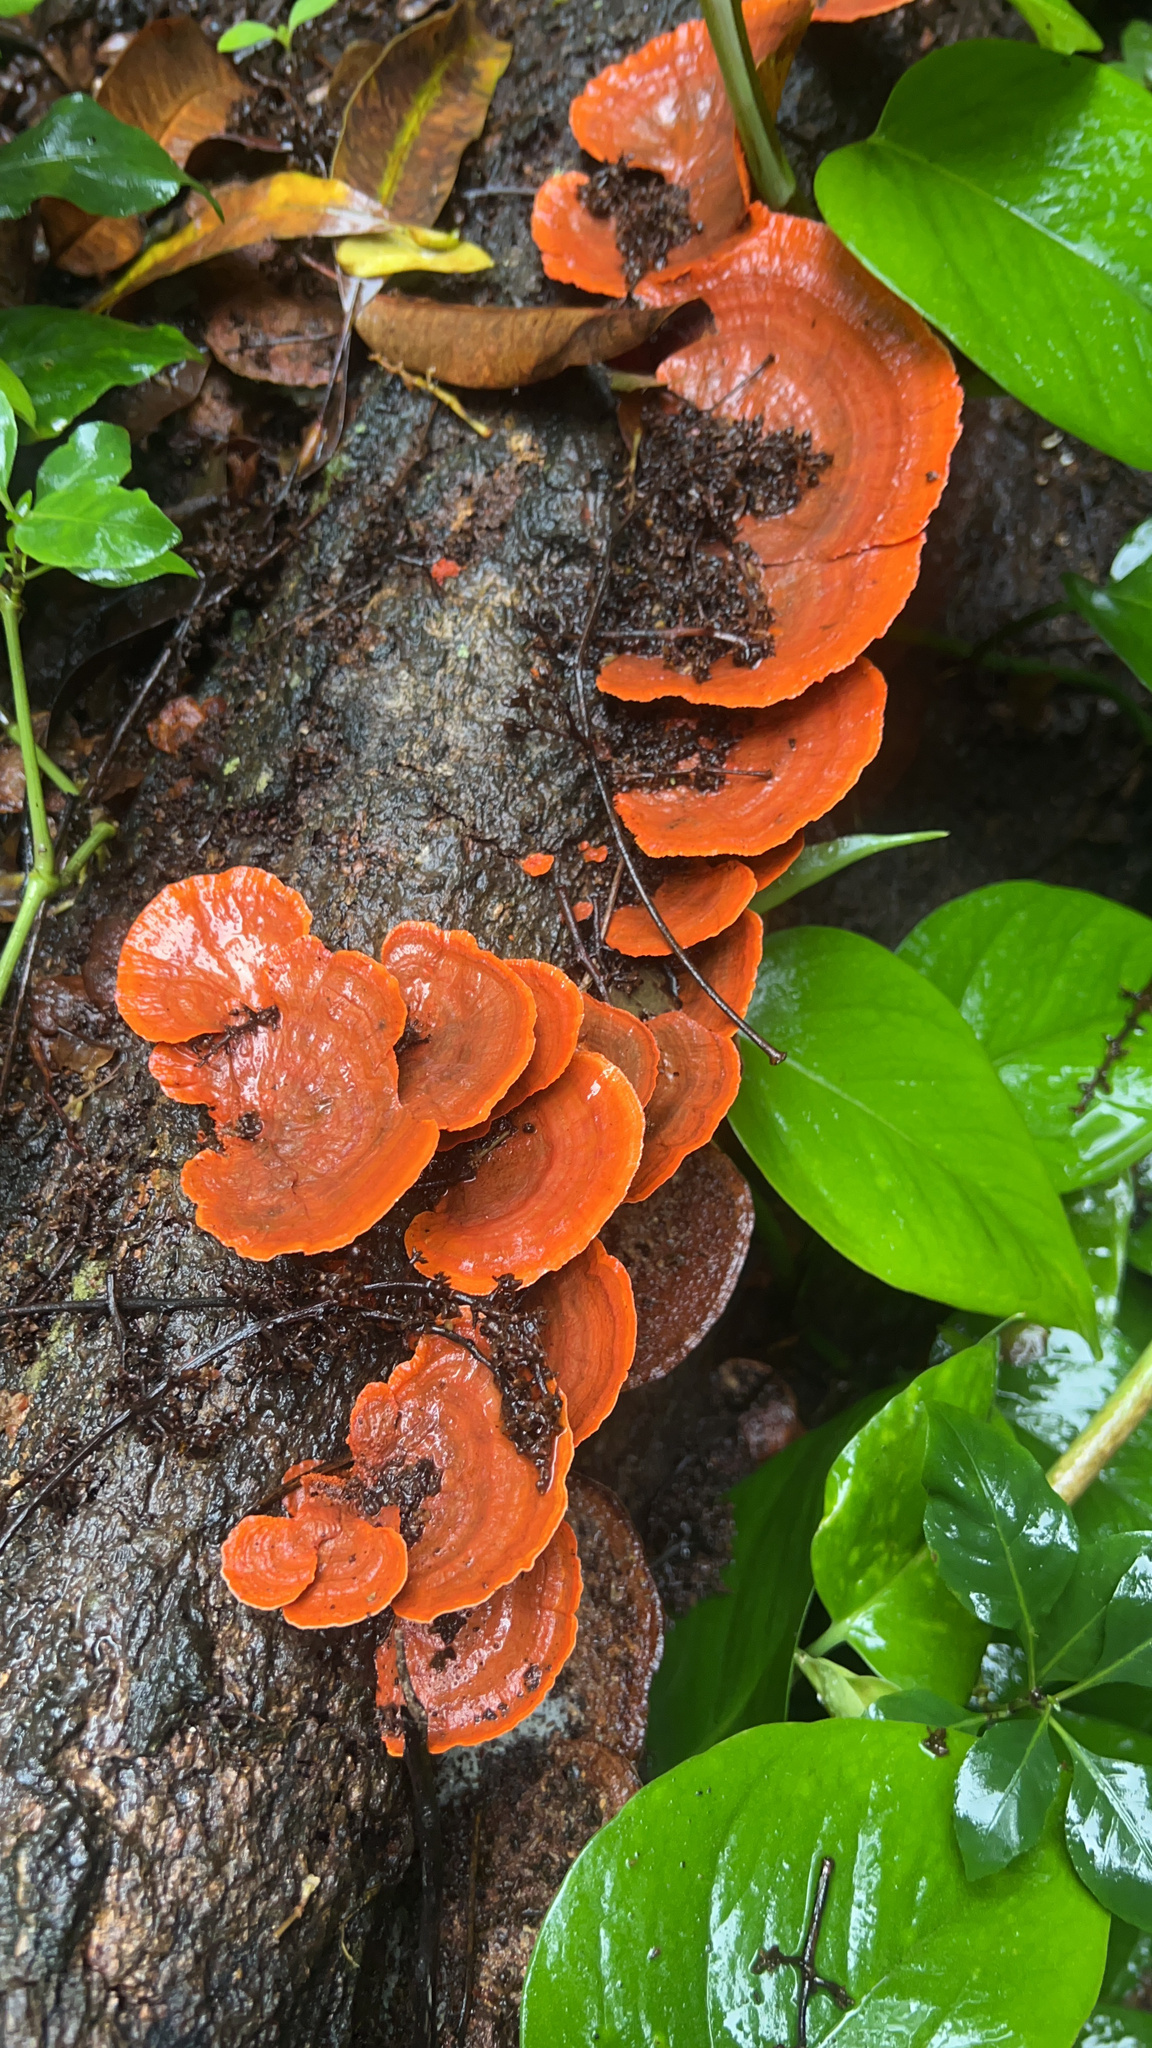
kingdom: Fungi
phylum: Basidiomycota
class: Agaricomycetes
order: Polyporales
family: Polyporaceae
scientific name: Polyporaceae
